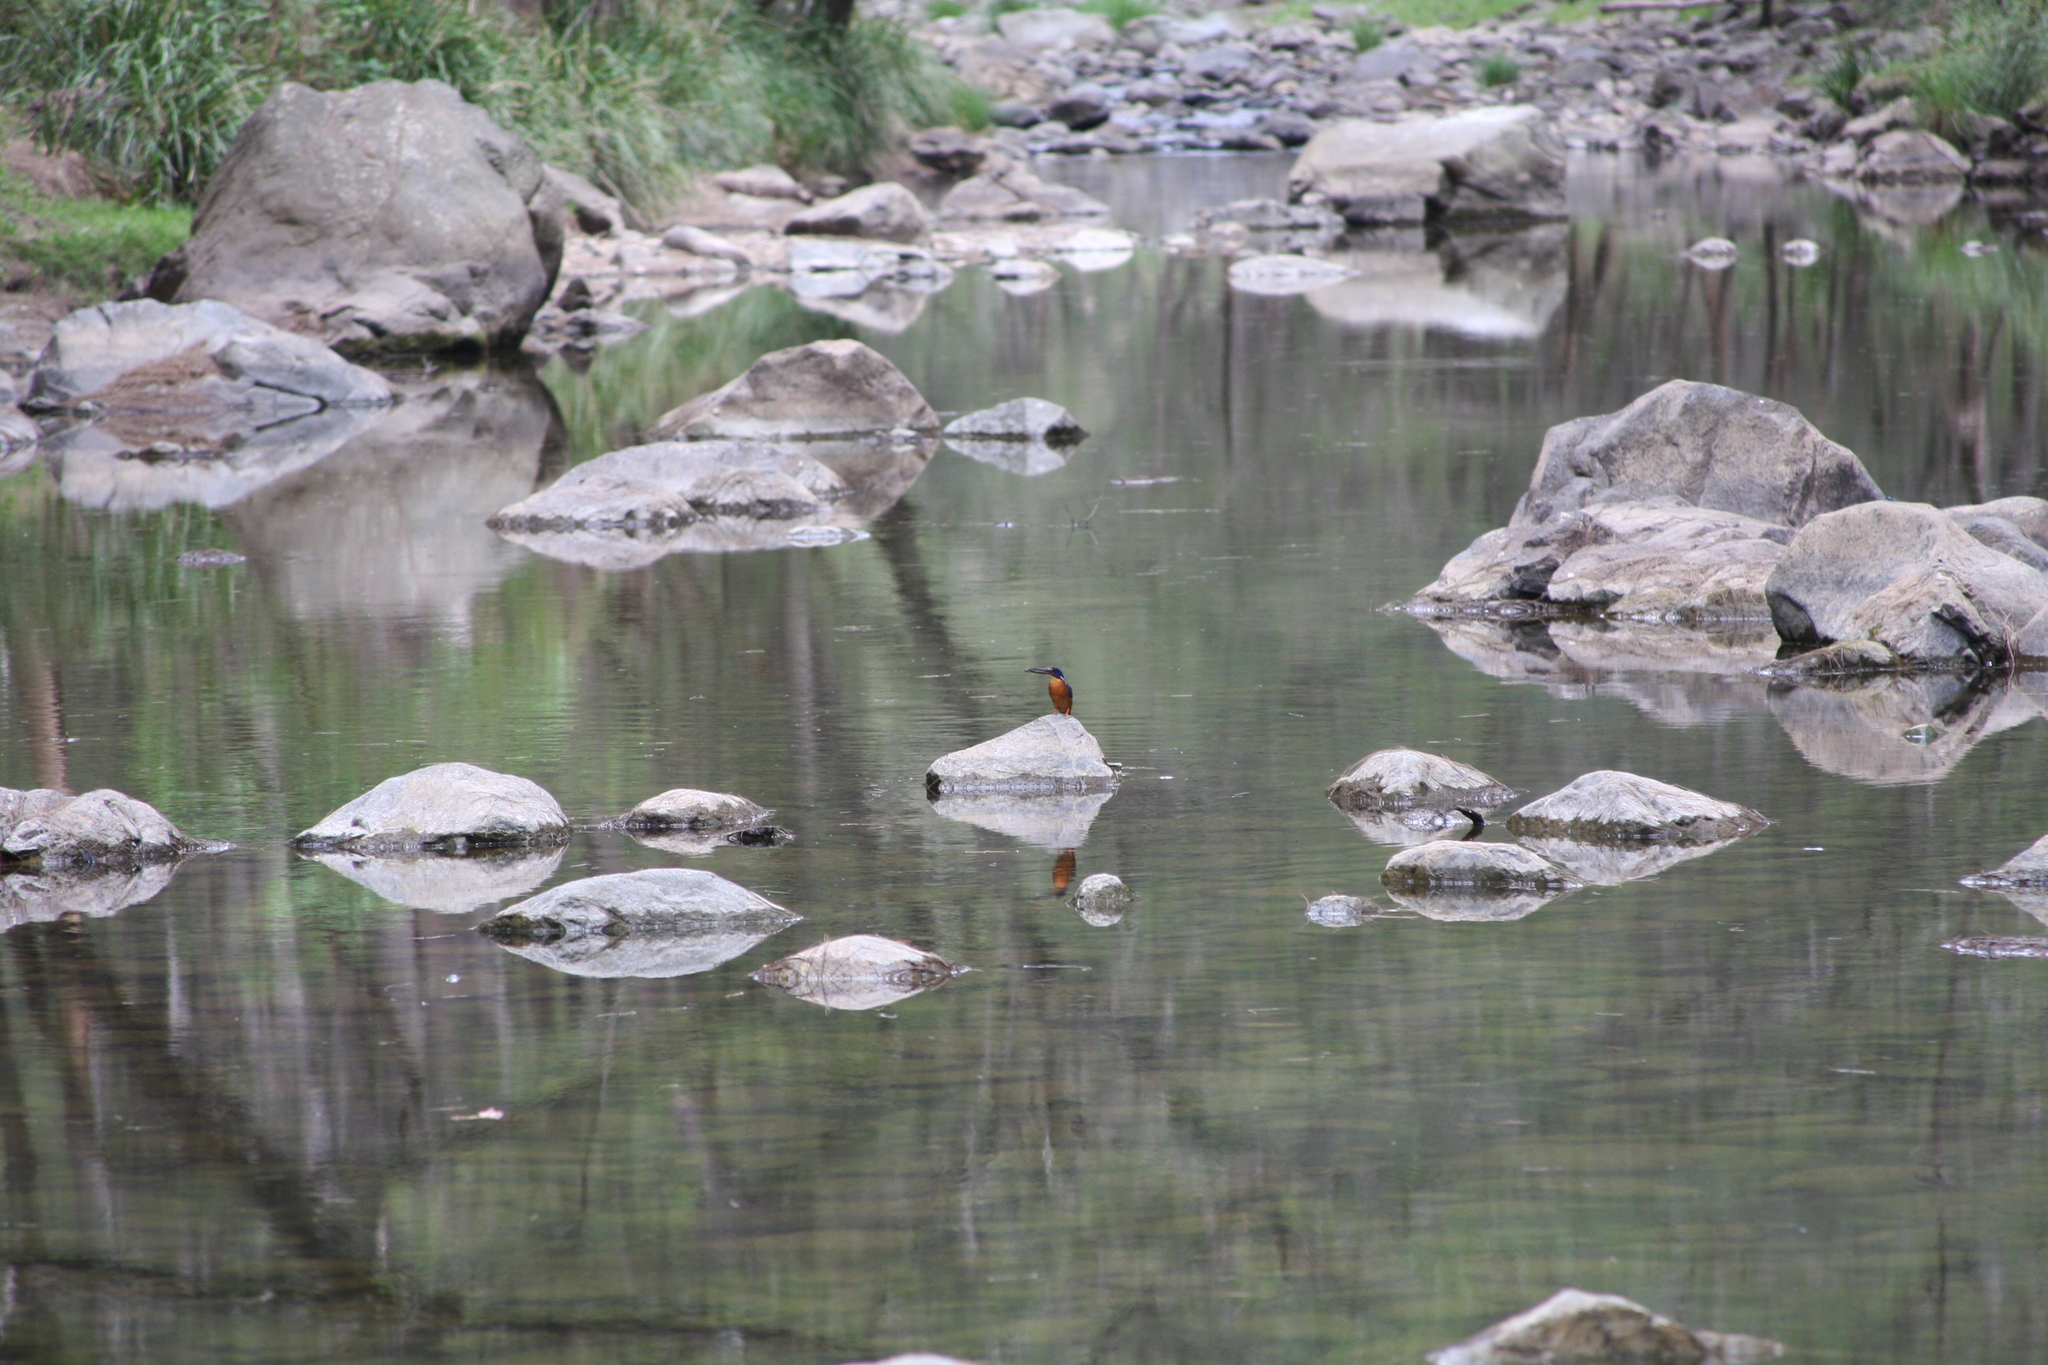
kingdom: Animalia
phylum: Chordata
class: Aves
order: Coraciiformes
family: Alcedinidae
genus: Ceyx
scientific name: Ceyx azureus
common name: Azure kingfisher
